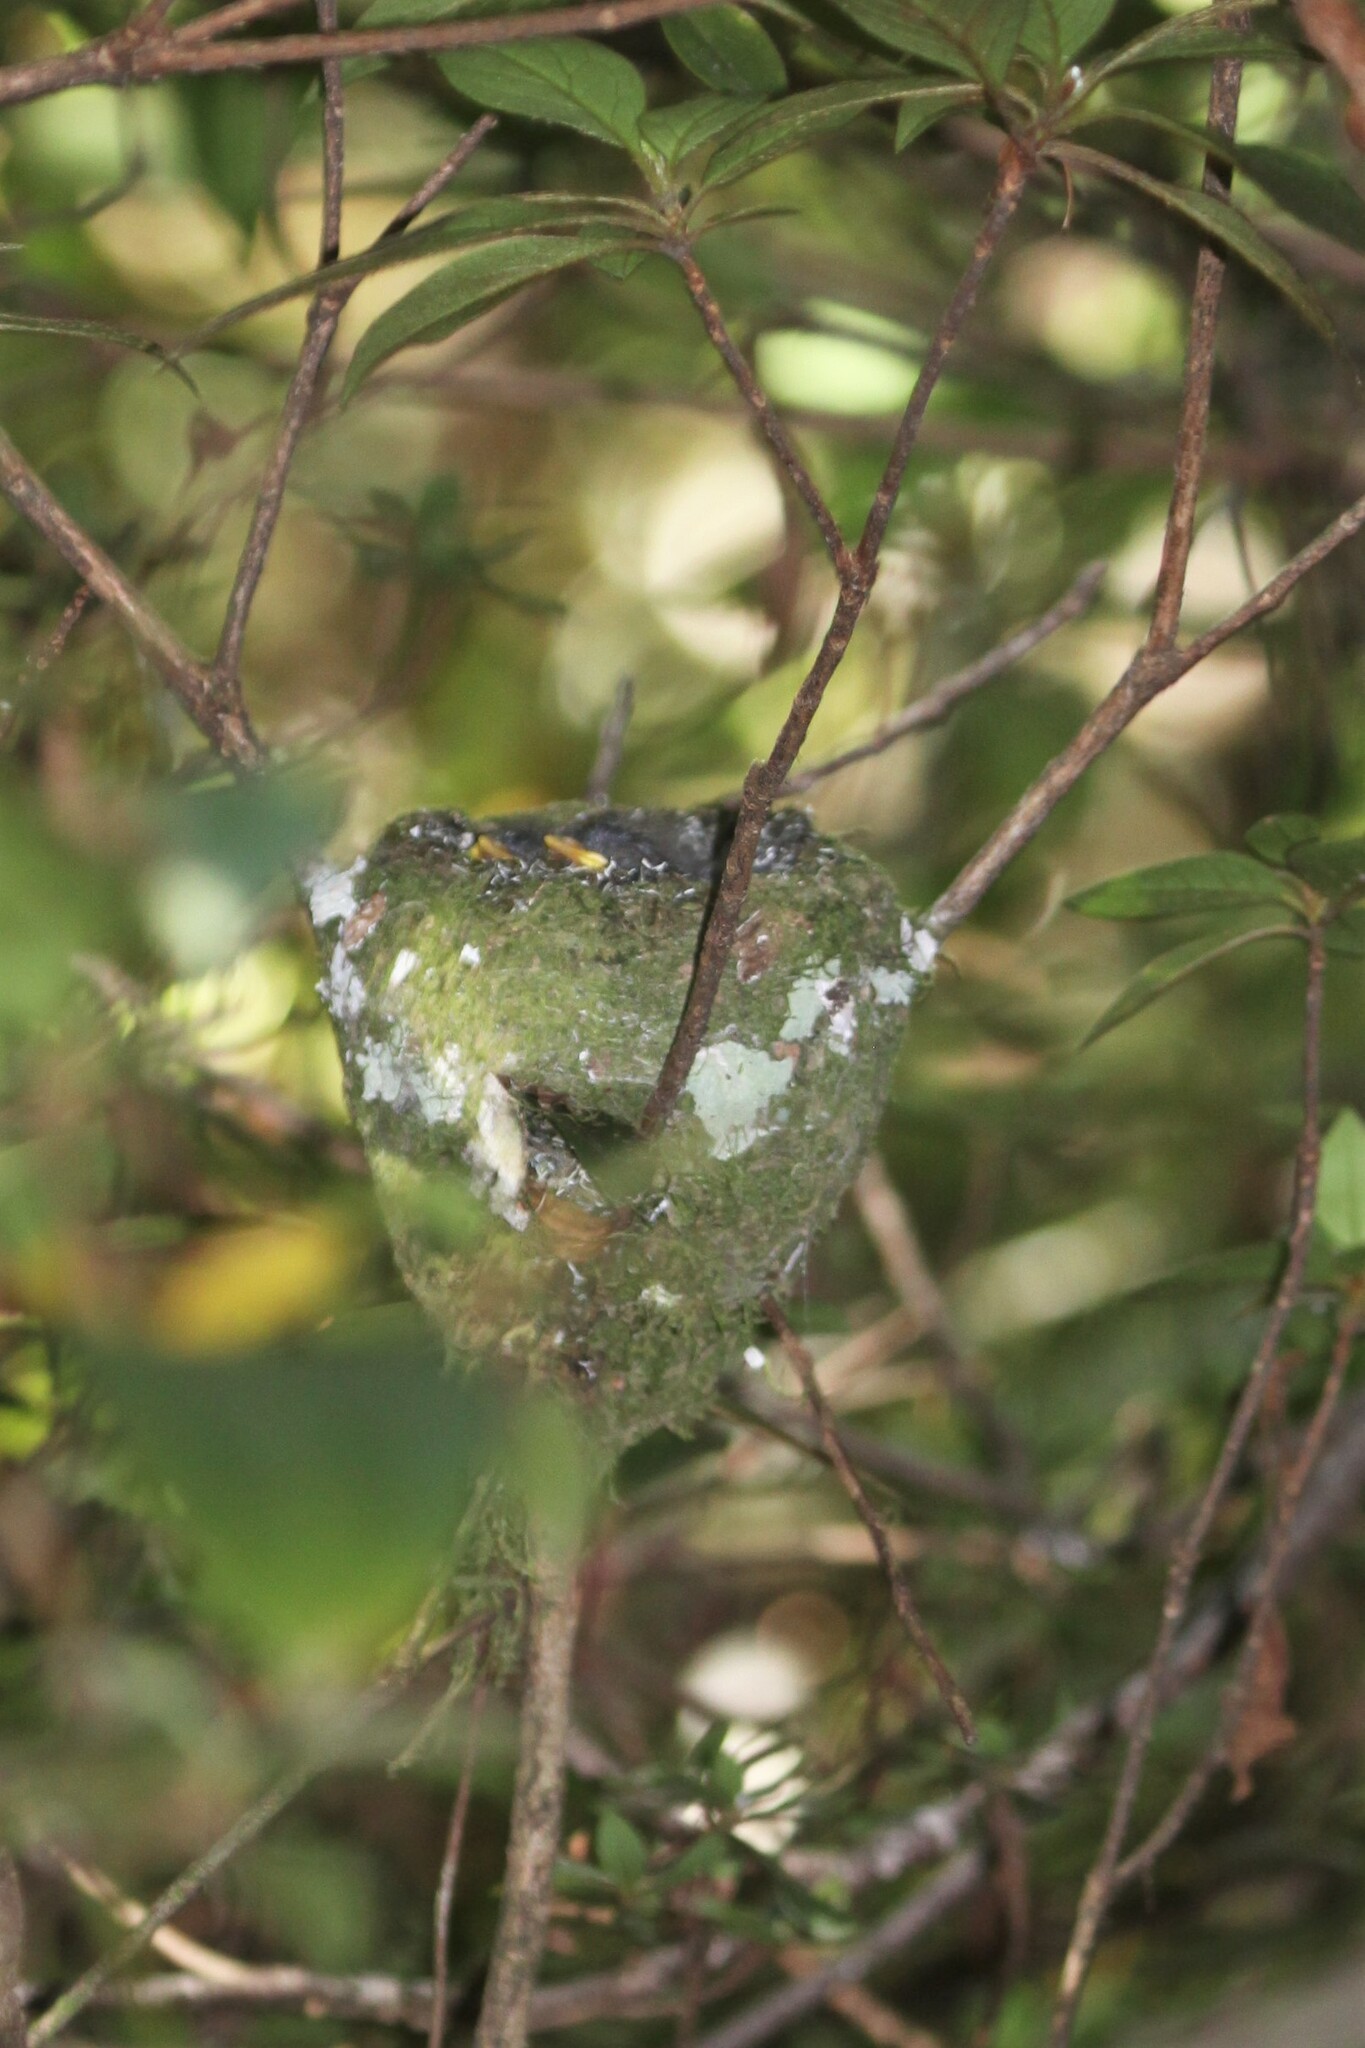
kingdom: Animalia
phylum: Chordata
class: Aves
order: Passeriformes
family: Stenostiridae
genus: Elminia
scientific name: Elminia albonotata
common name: White-tailed crested-flycatcher
